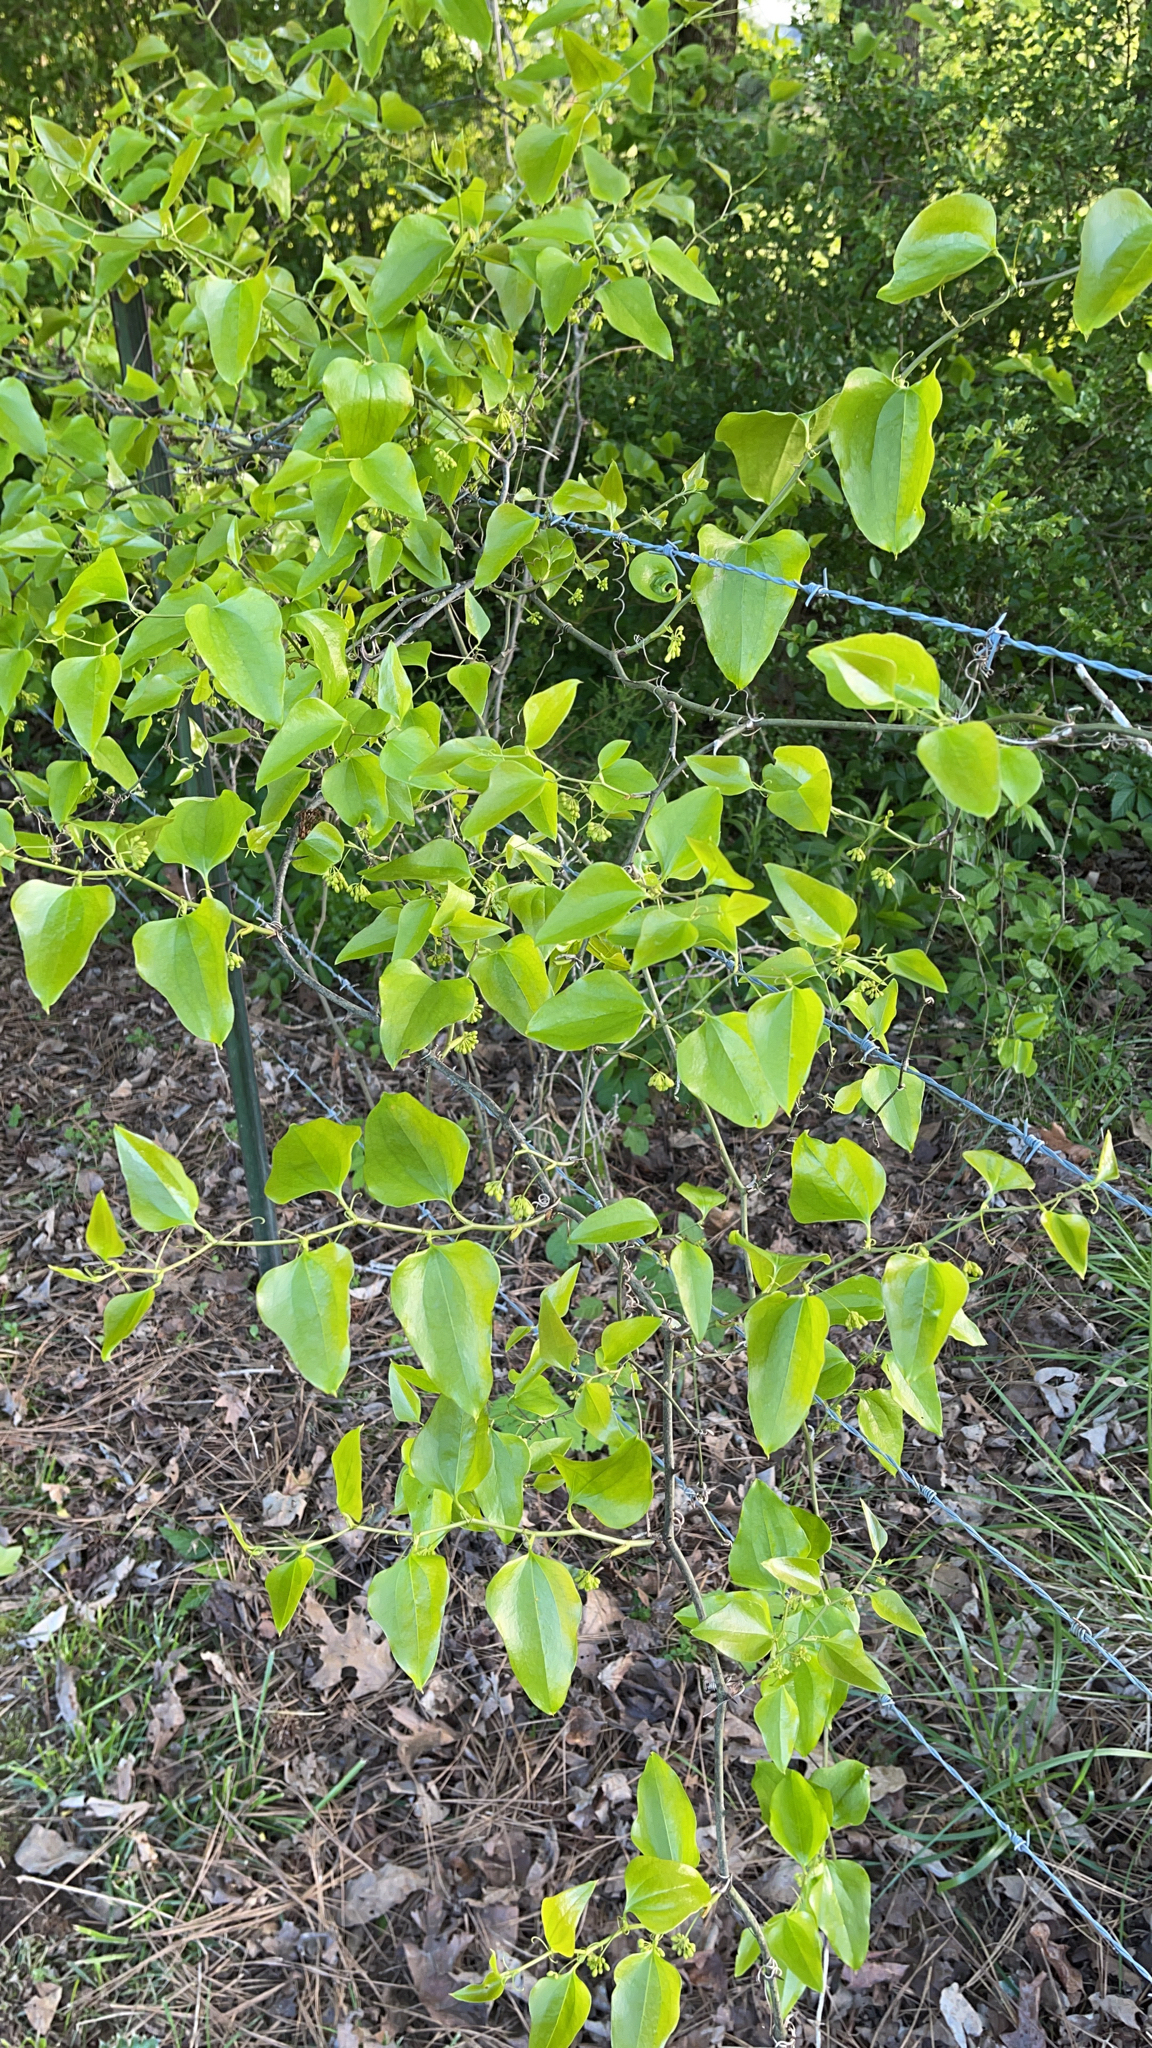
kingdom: Plantae
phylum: Tracheophyta
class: Liliopsida
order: Liliales
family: Smilacaceae
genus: Smilax
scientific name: Smilax bona-nox
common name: Catbrier
